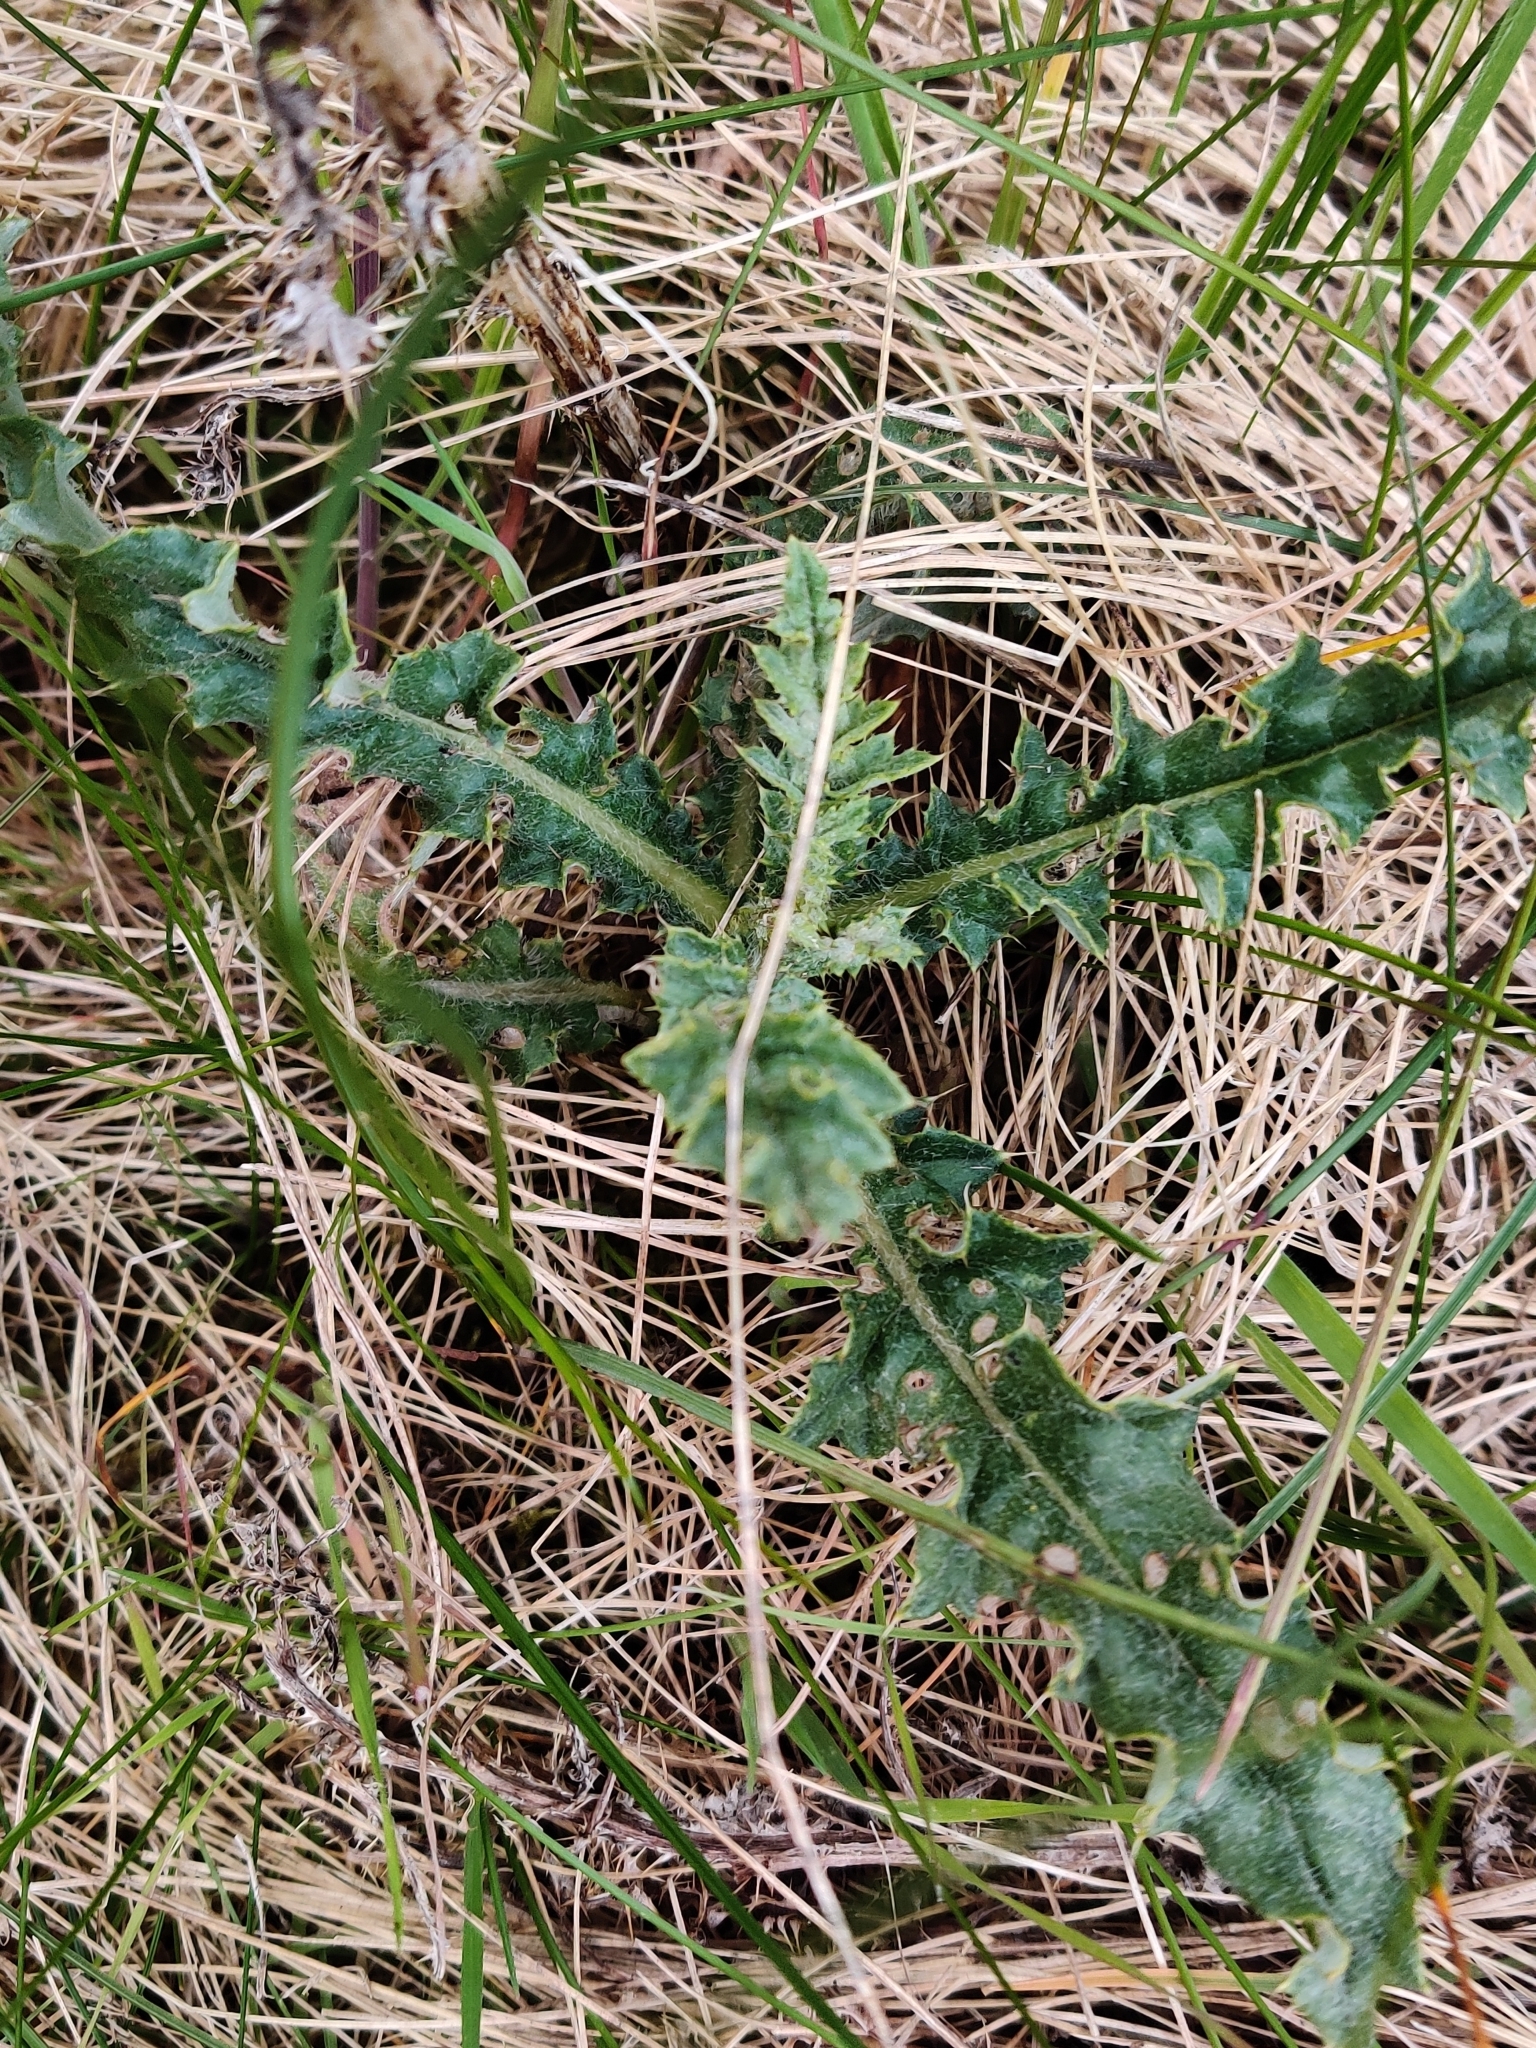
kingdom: Plantae
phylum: Tracheophyta
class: Magnoliopsida
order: Asterales
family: Asteraceae
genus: Cirsium
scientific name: Cirsium arvense
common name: Creeping thistle
